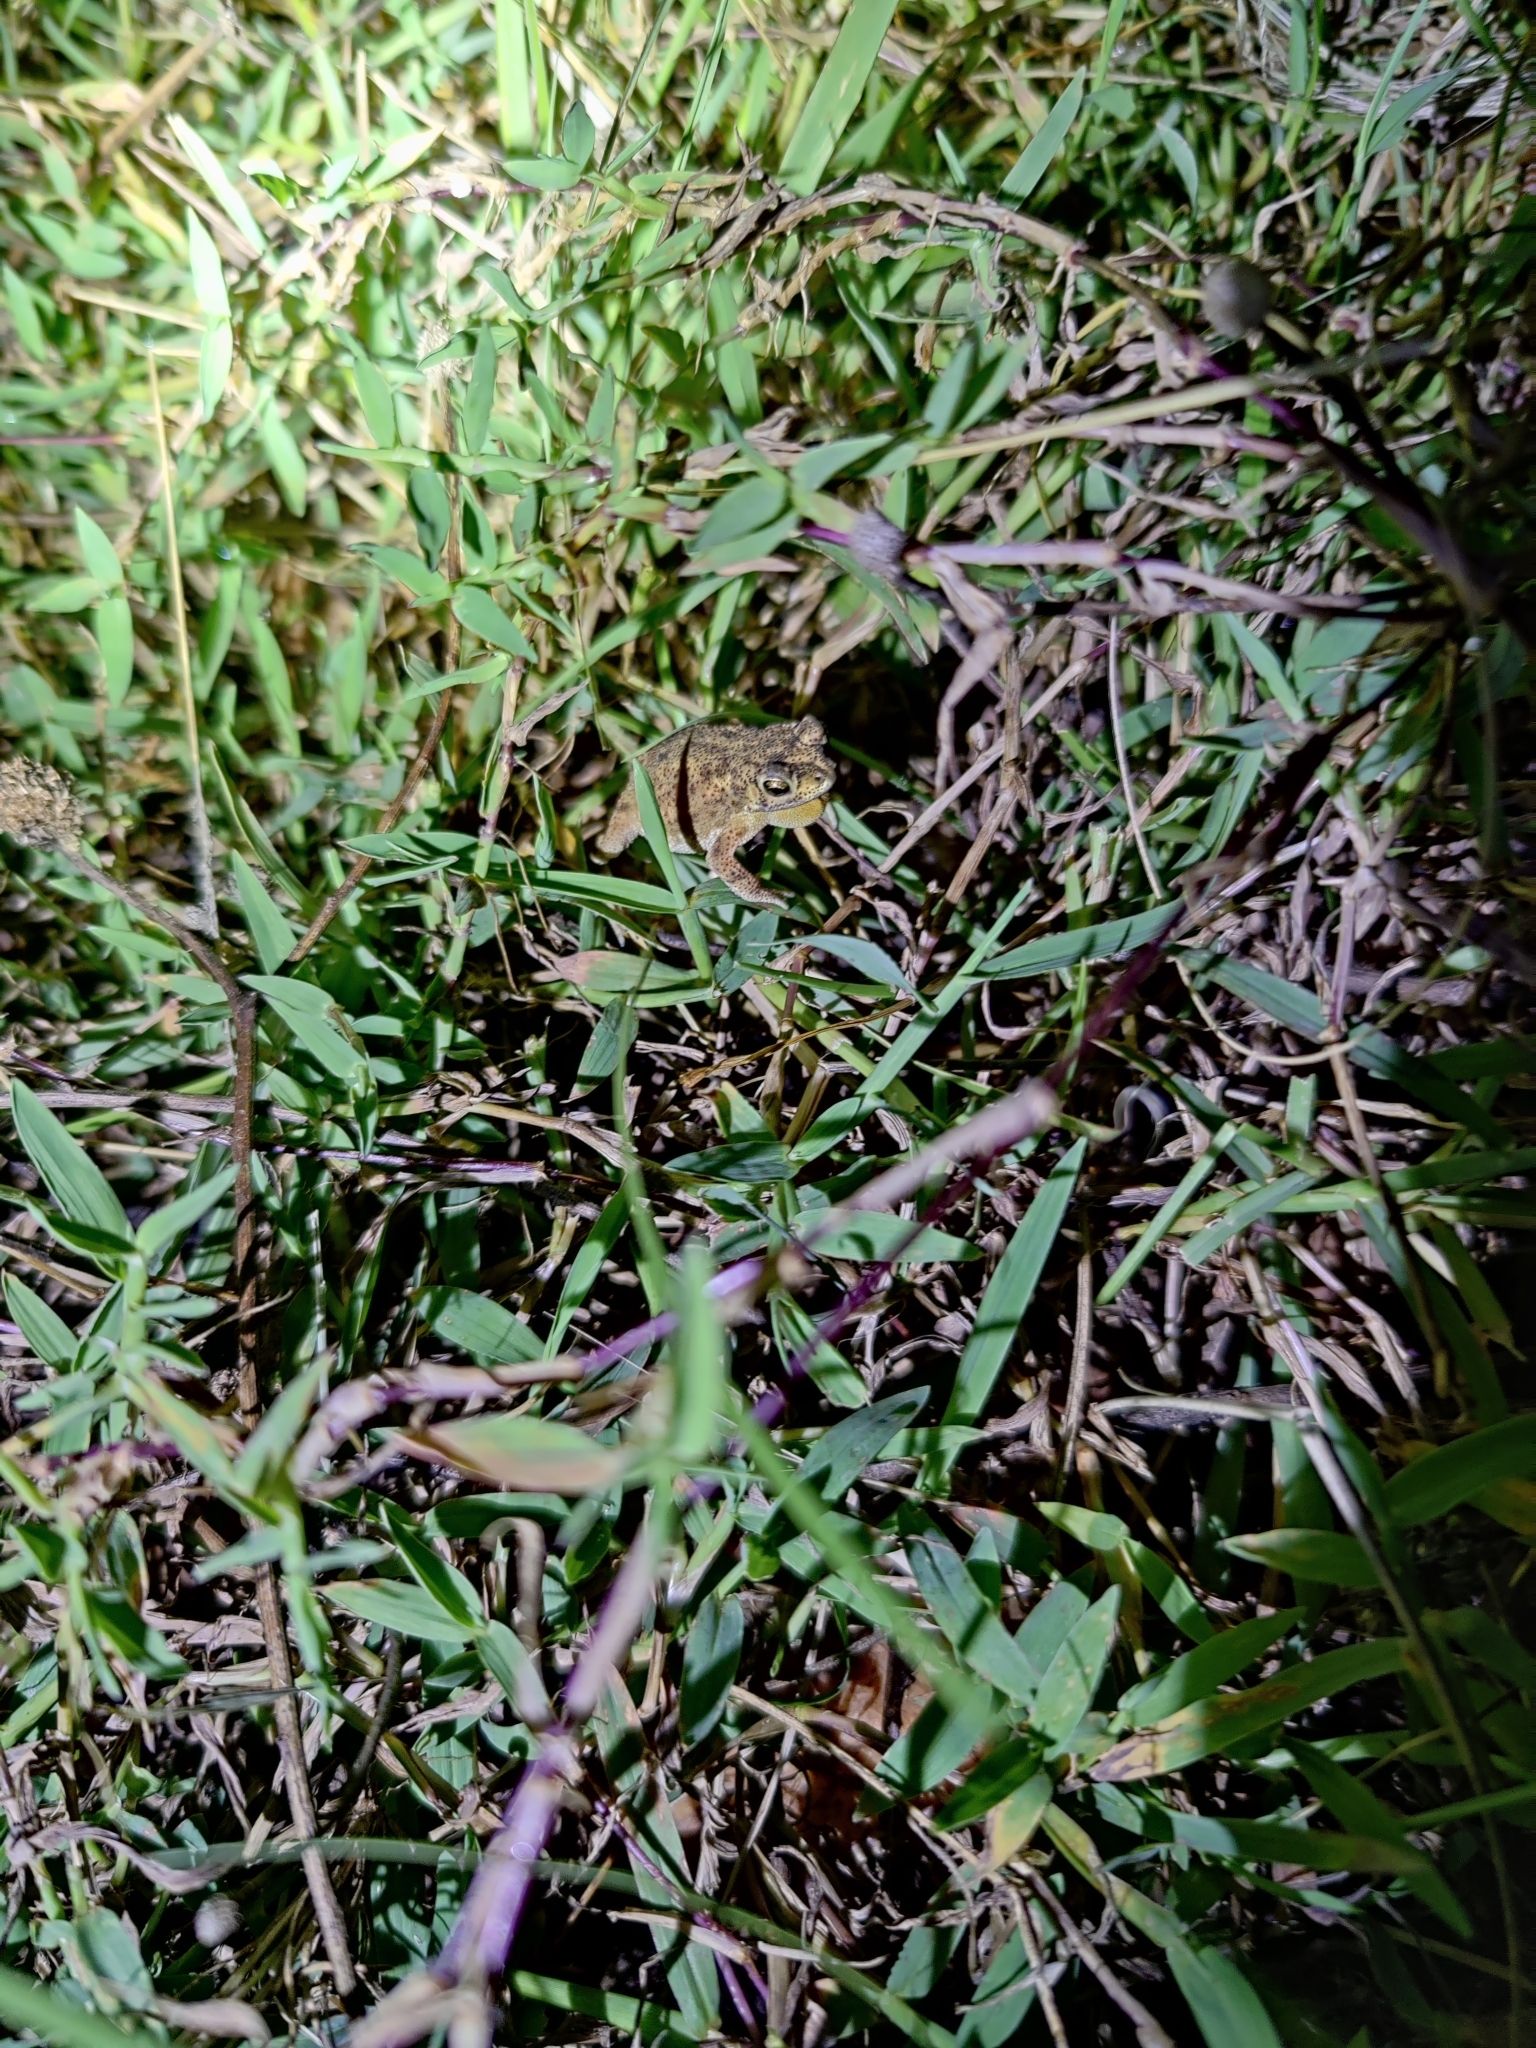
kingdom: Animalia
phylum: Chordata
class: Amphibia
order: Anura
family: Bufonidae
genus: Duttaphrynus
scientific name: Duttaphrynus scaber
